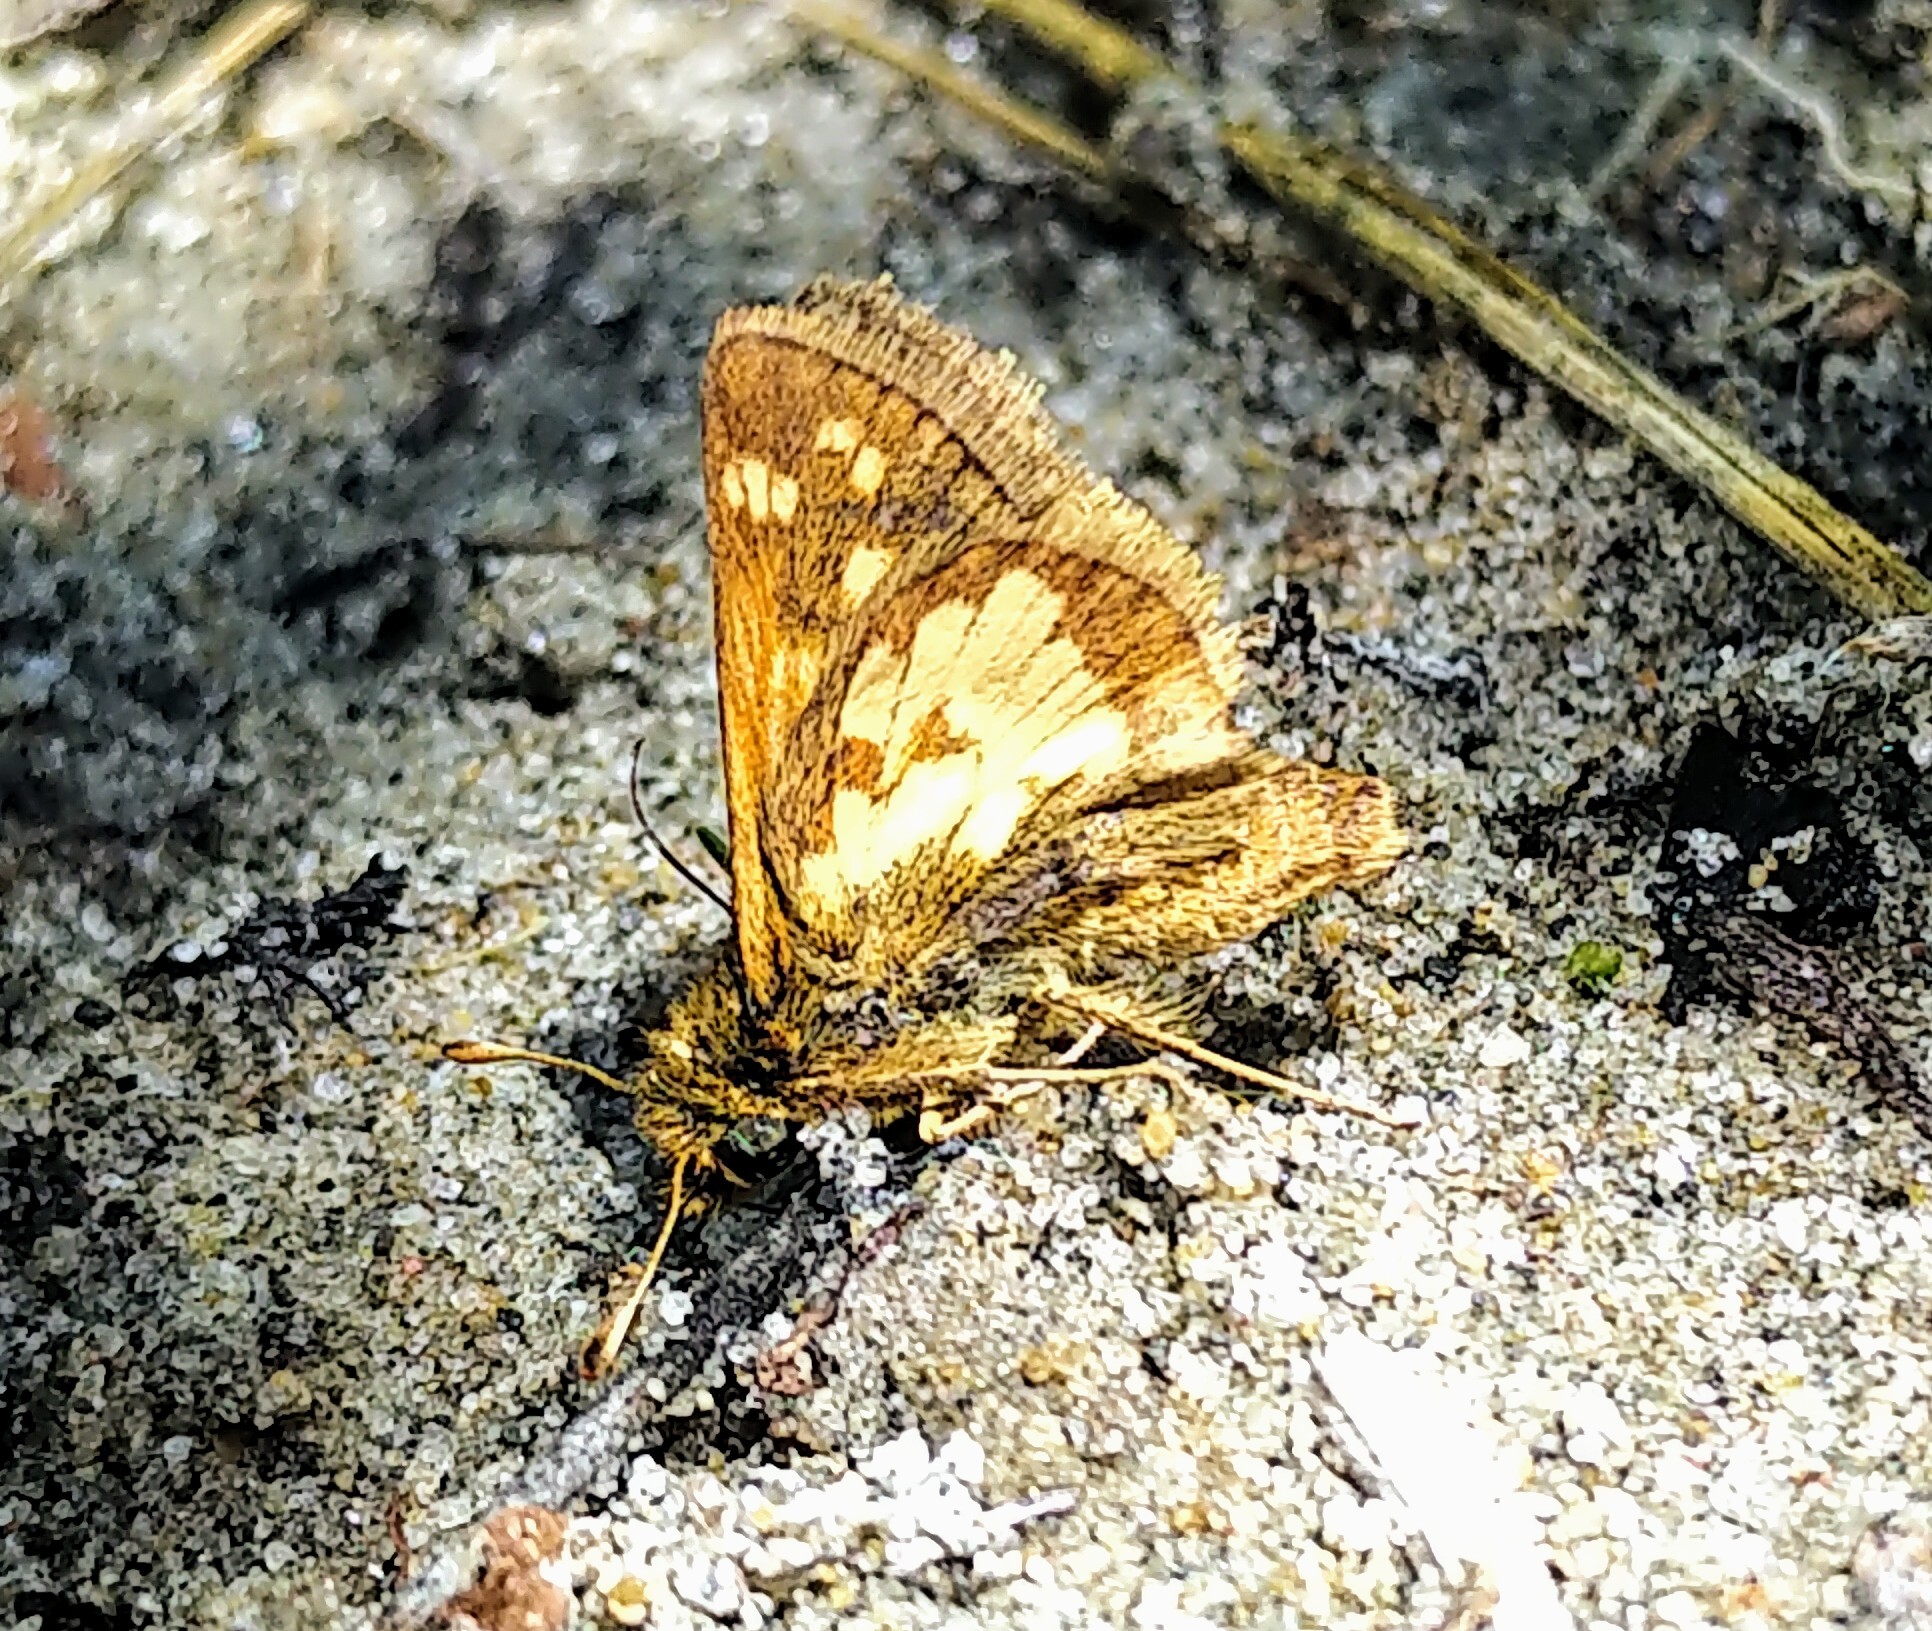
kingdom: Animalia
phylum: Arthropoda
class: Insecta
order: Lepidoptera
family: Hesperiidae
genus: Polites
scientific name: Polites coras
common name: Peck's skipper
